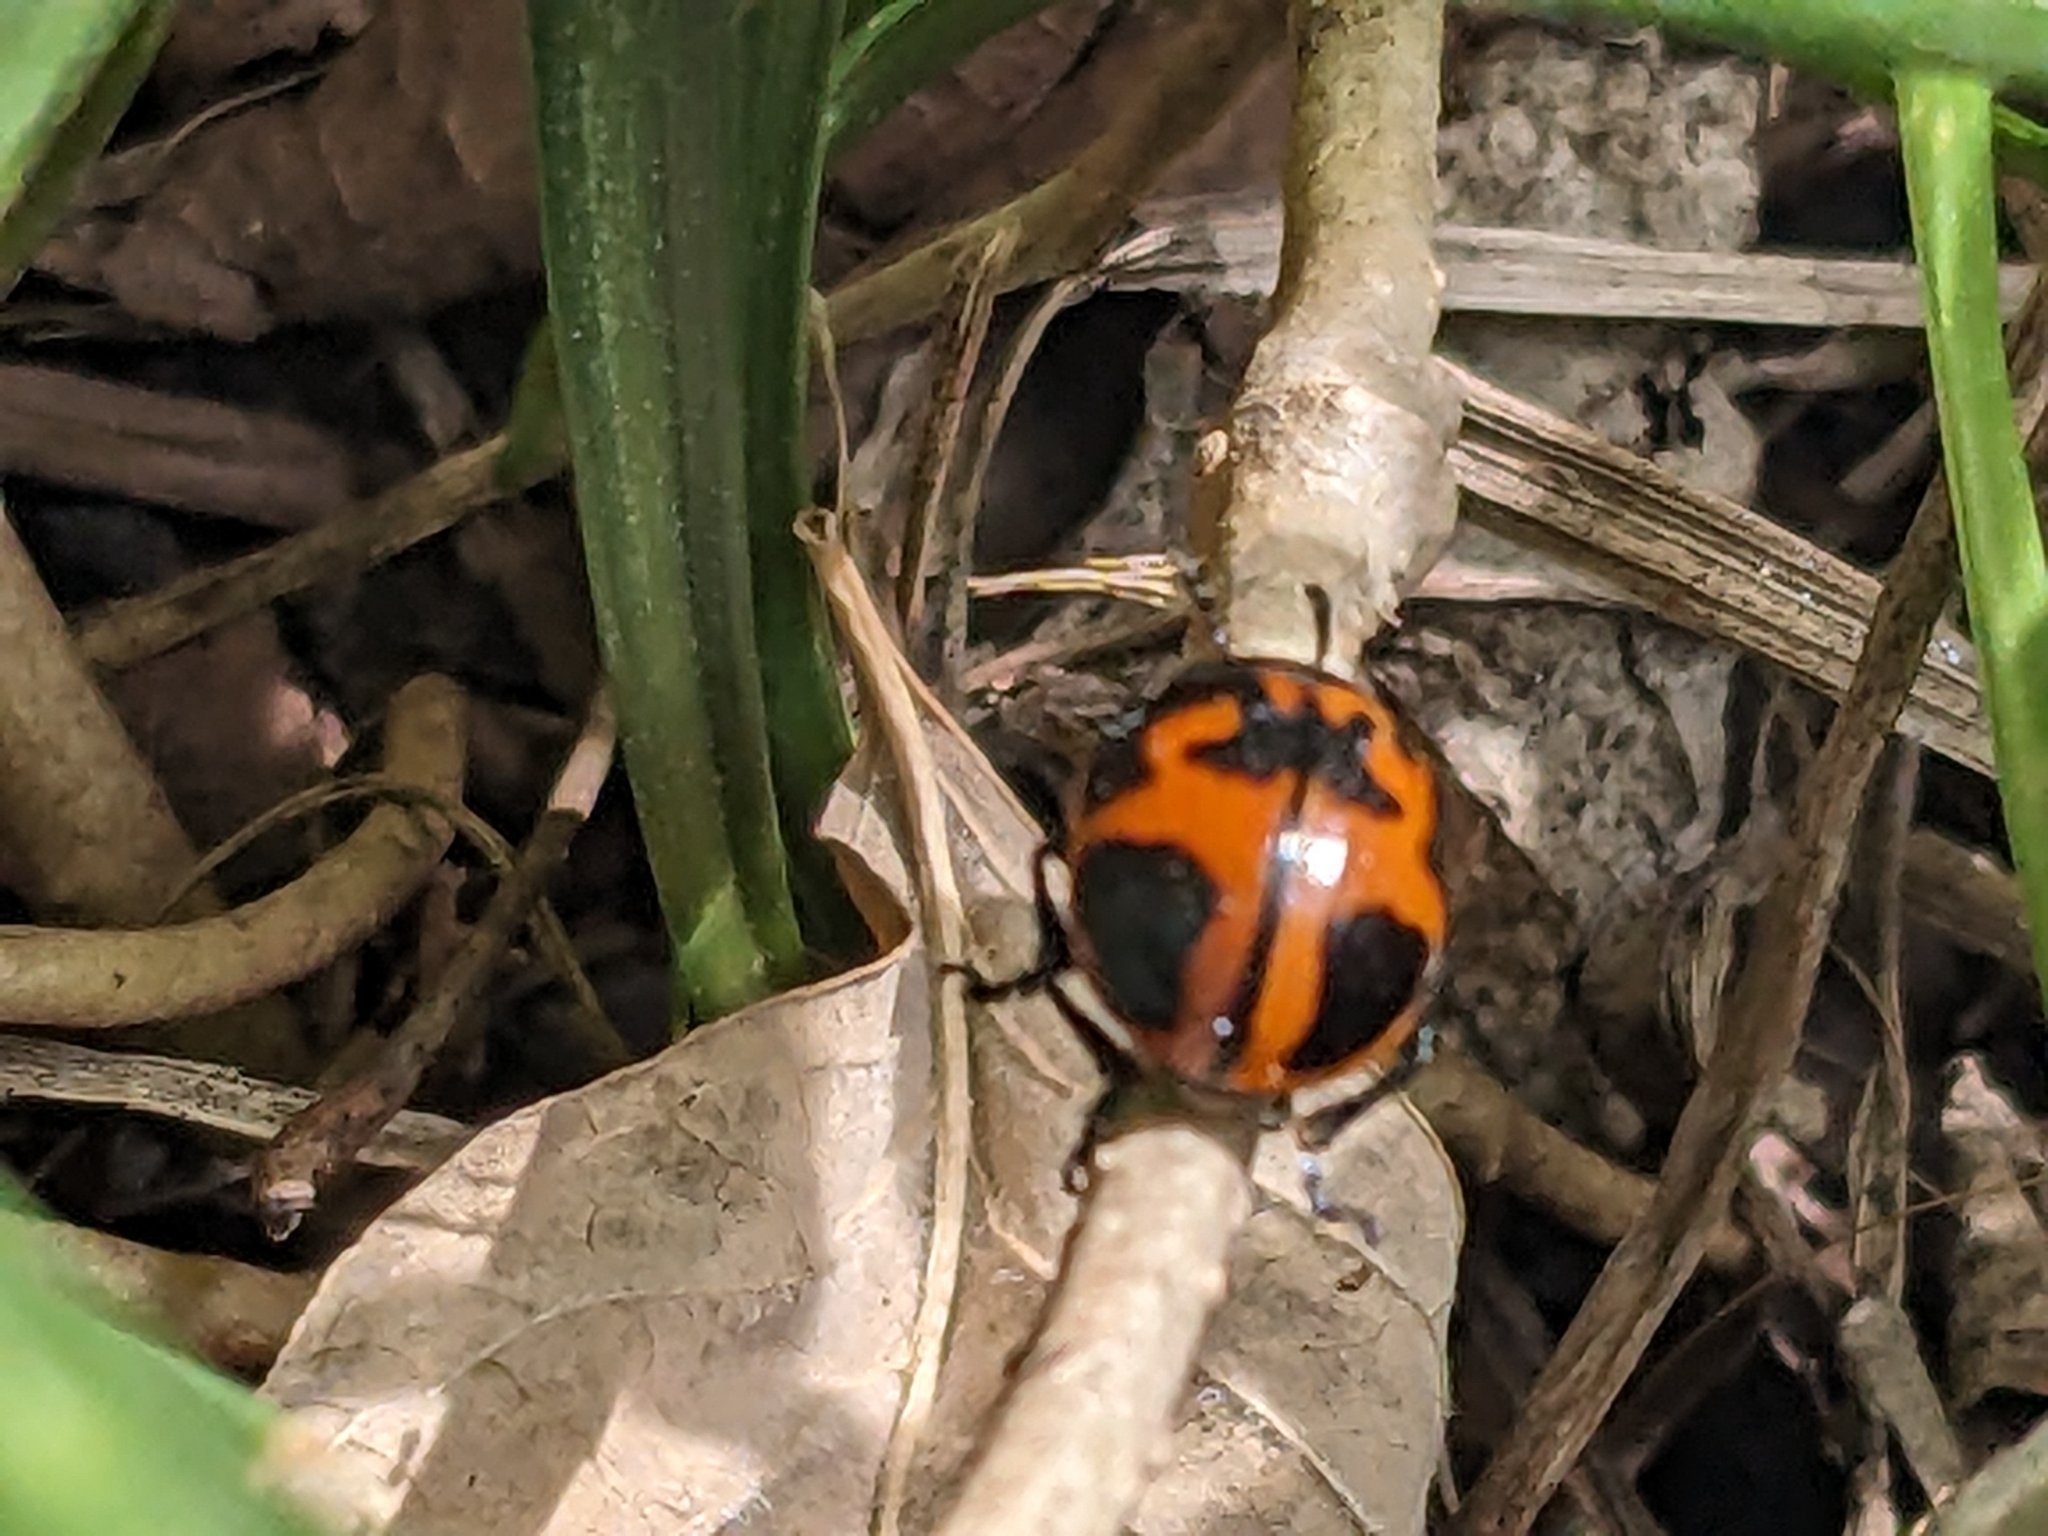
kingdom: Animalia
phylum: Arthropoda
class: Insecta
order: Coleoptera
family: Chrysomelidae
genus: Labidomera
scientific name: Labidomera clivicollis
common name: Swamp milkweed leaf beetle
